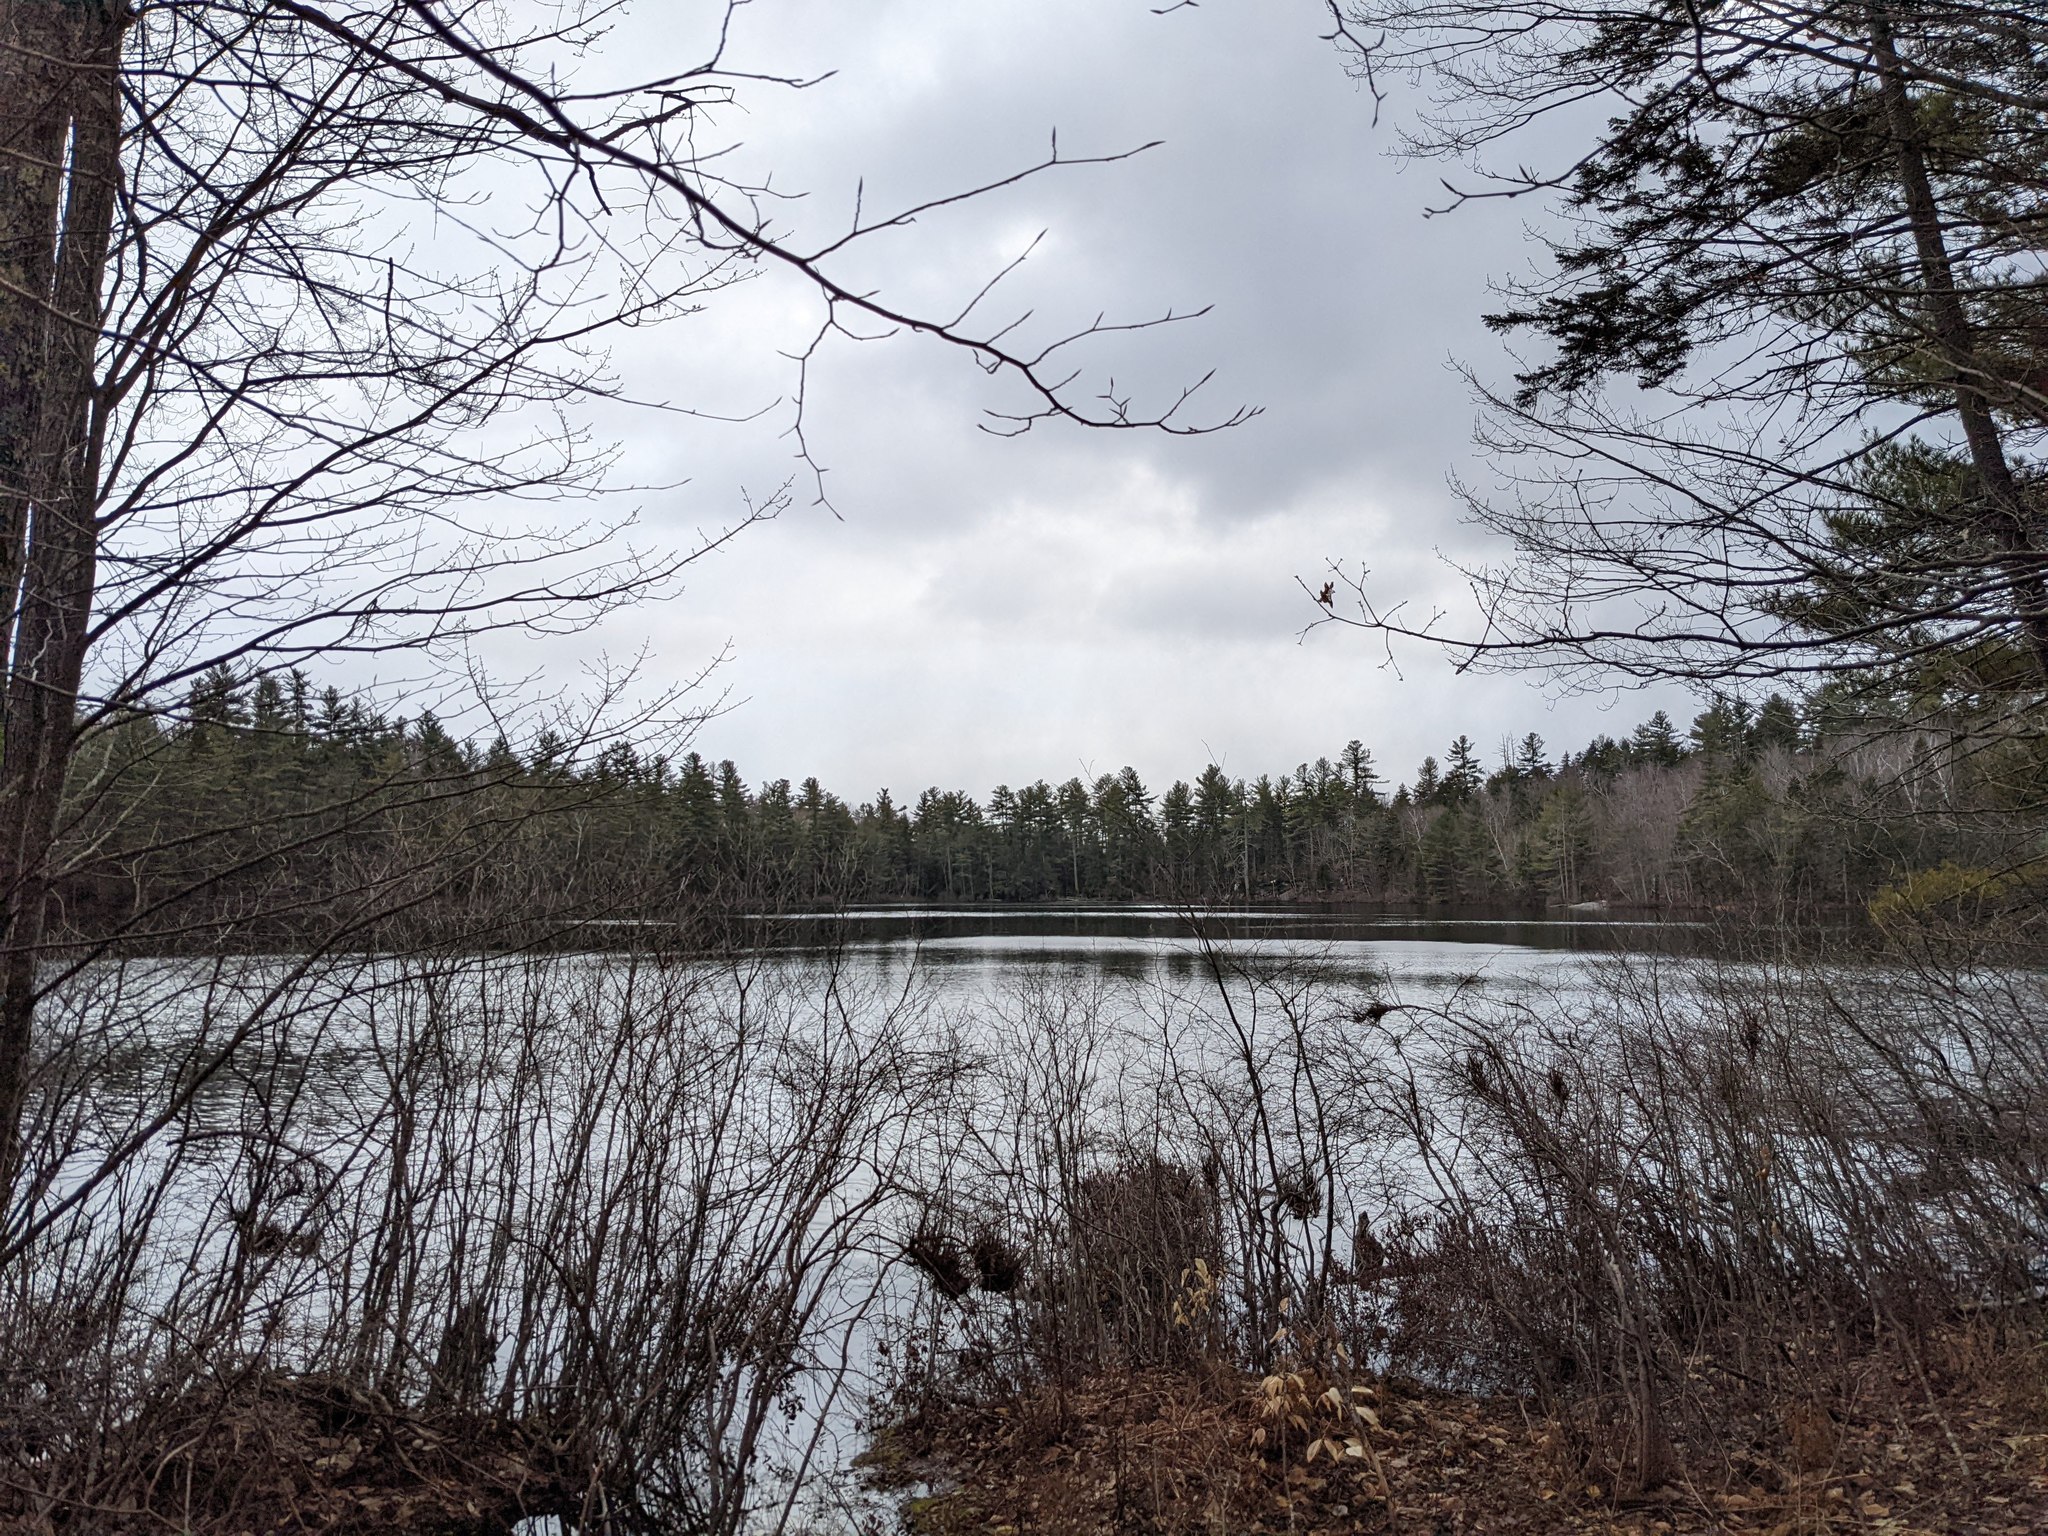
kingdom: Plantae
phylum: Tracheophyta
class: Pinopsida
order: Pinales
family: Pinaceae
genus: Pinus
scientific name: Pinus strobus
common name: Weymouth pine
